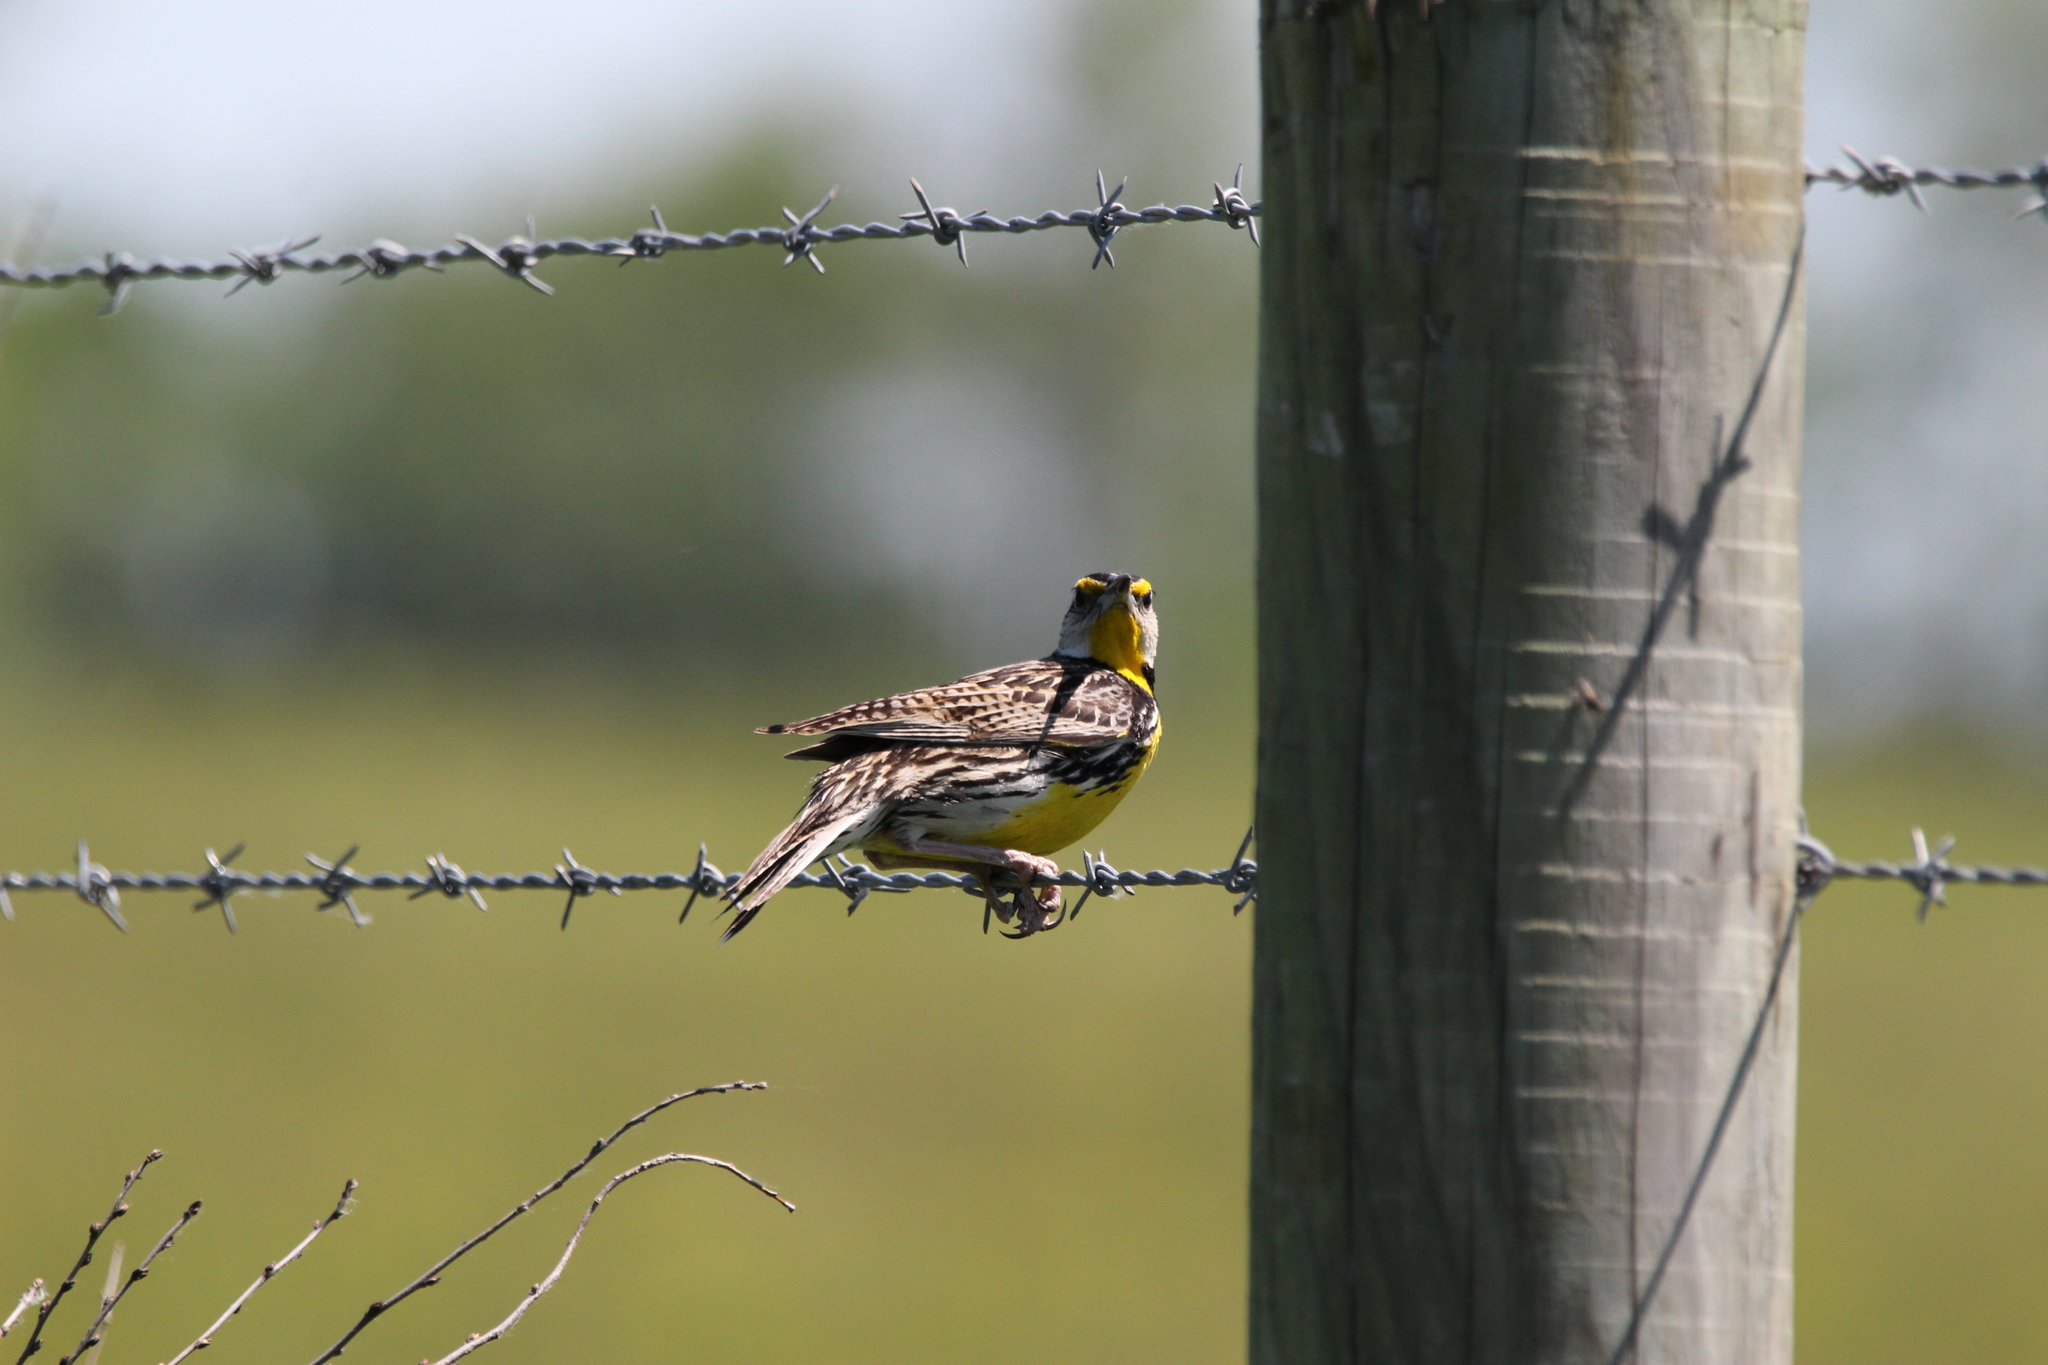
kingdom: Animalia
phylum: Chordata
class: Aves
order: Passeriformes
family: Icteridae
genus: Sturnella
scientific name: Sturnella magna
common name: Eastern meadowlark
